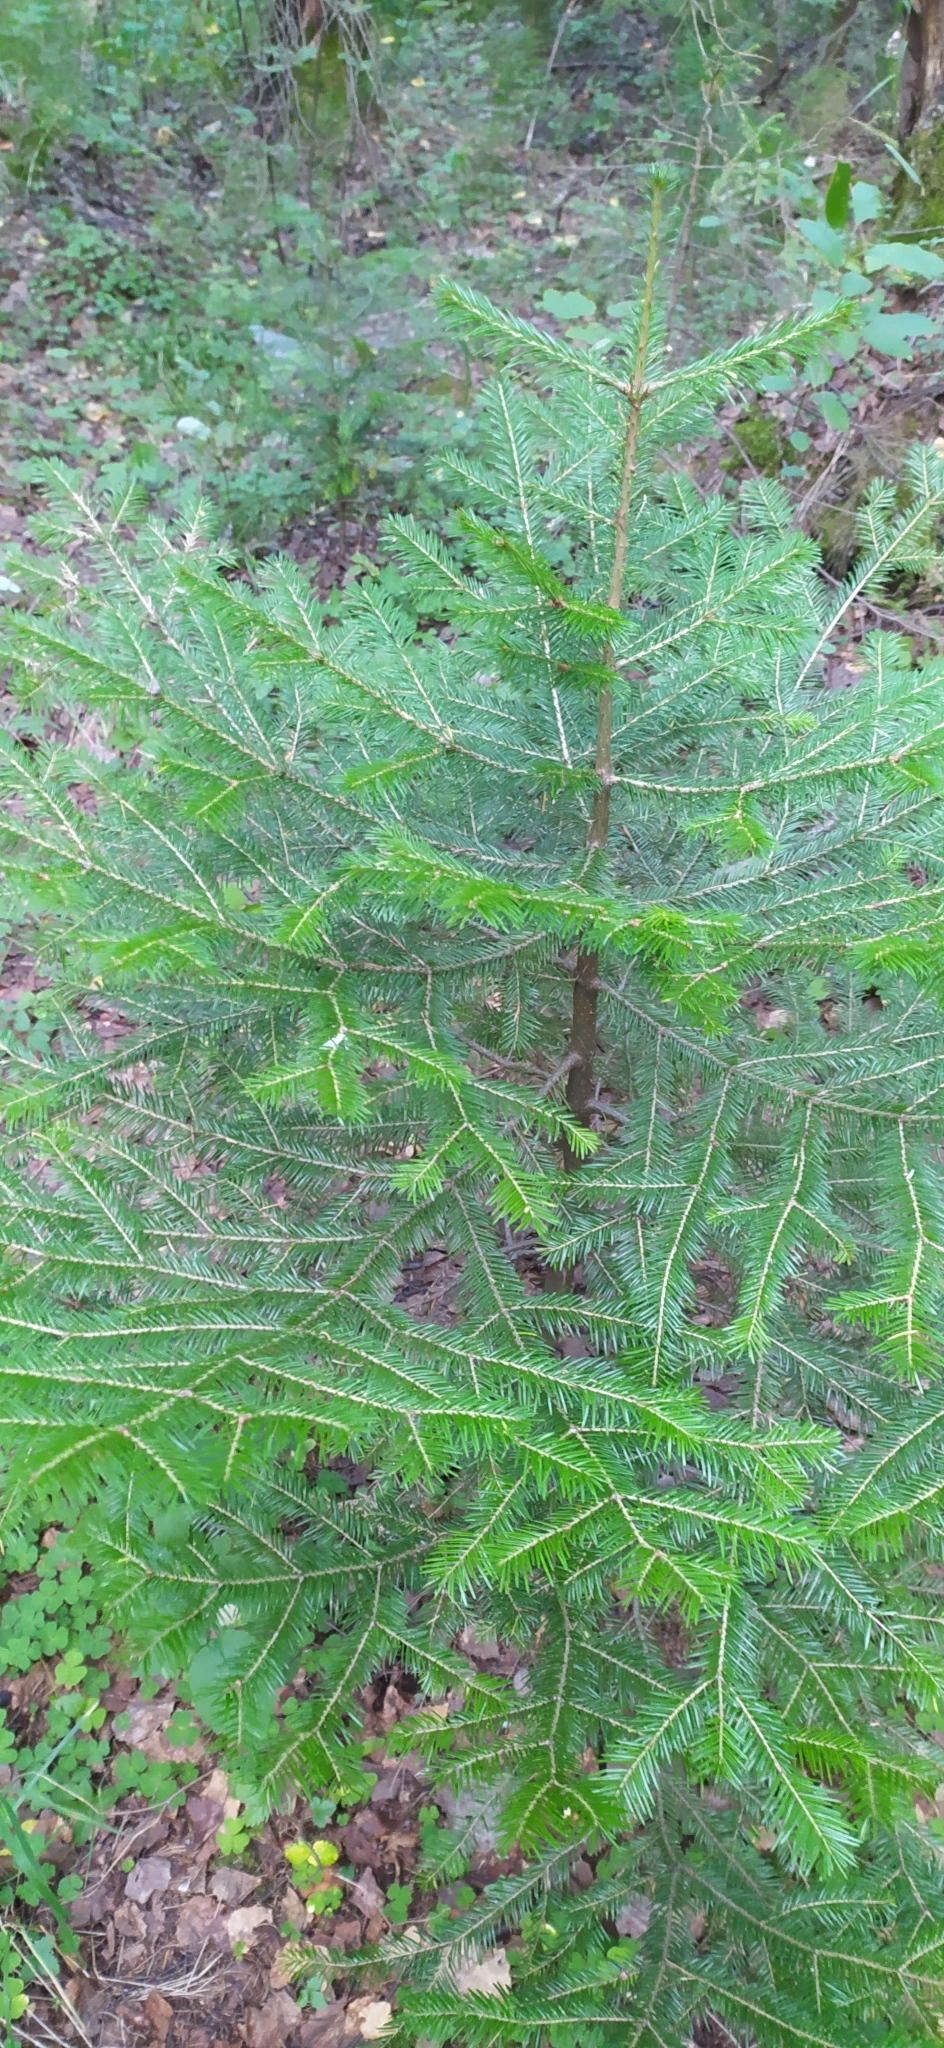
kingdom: Plantae
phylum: Tracheophyta
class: Pinopsida
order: Pinales
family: Pinaceae
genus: Abies
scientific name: Abies sibirica
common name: Siberian fir
